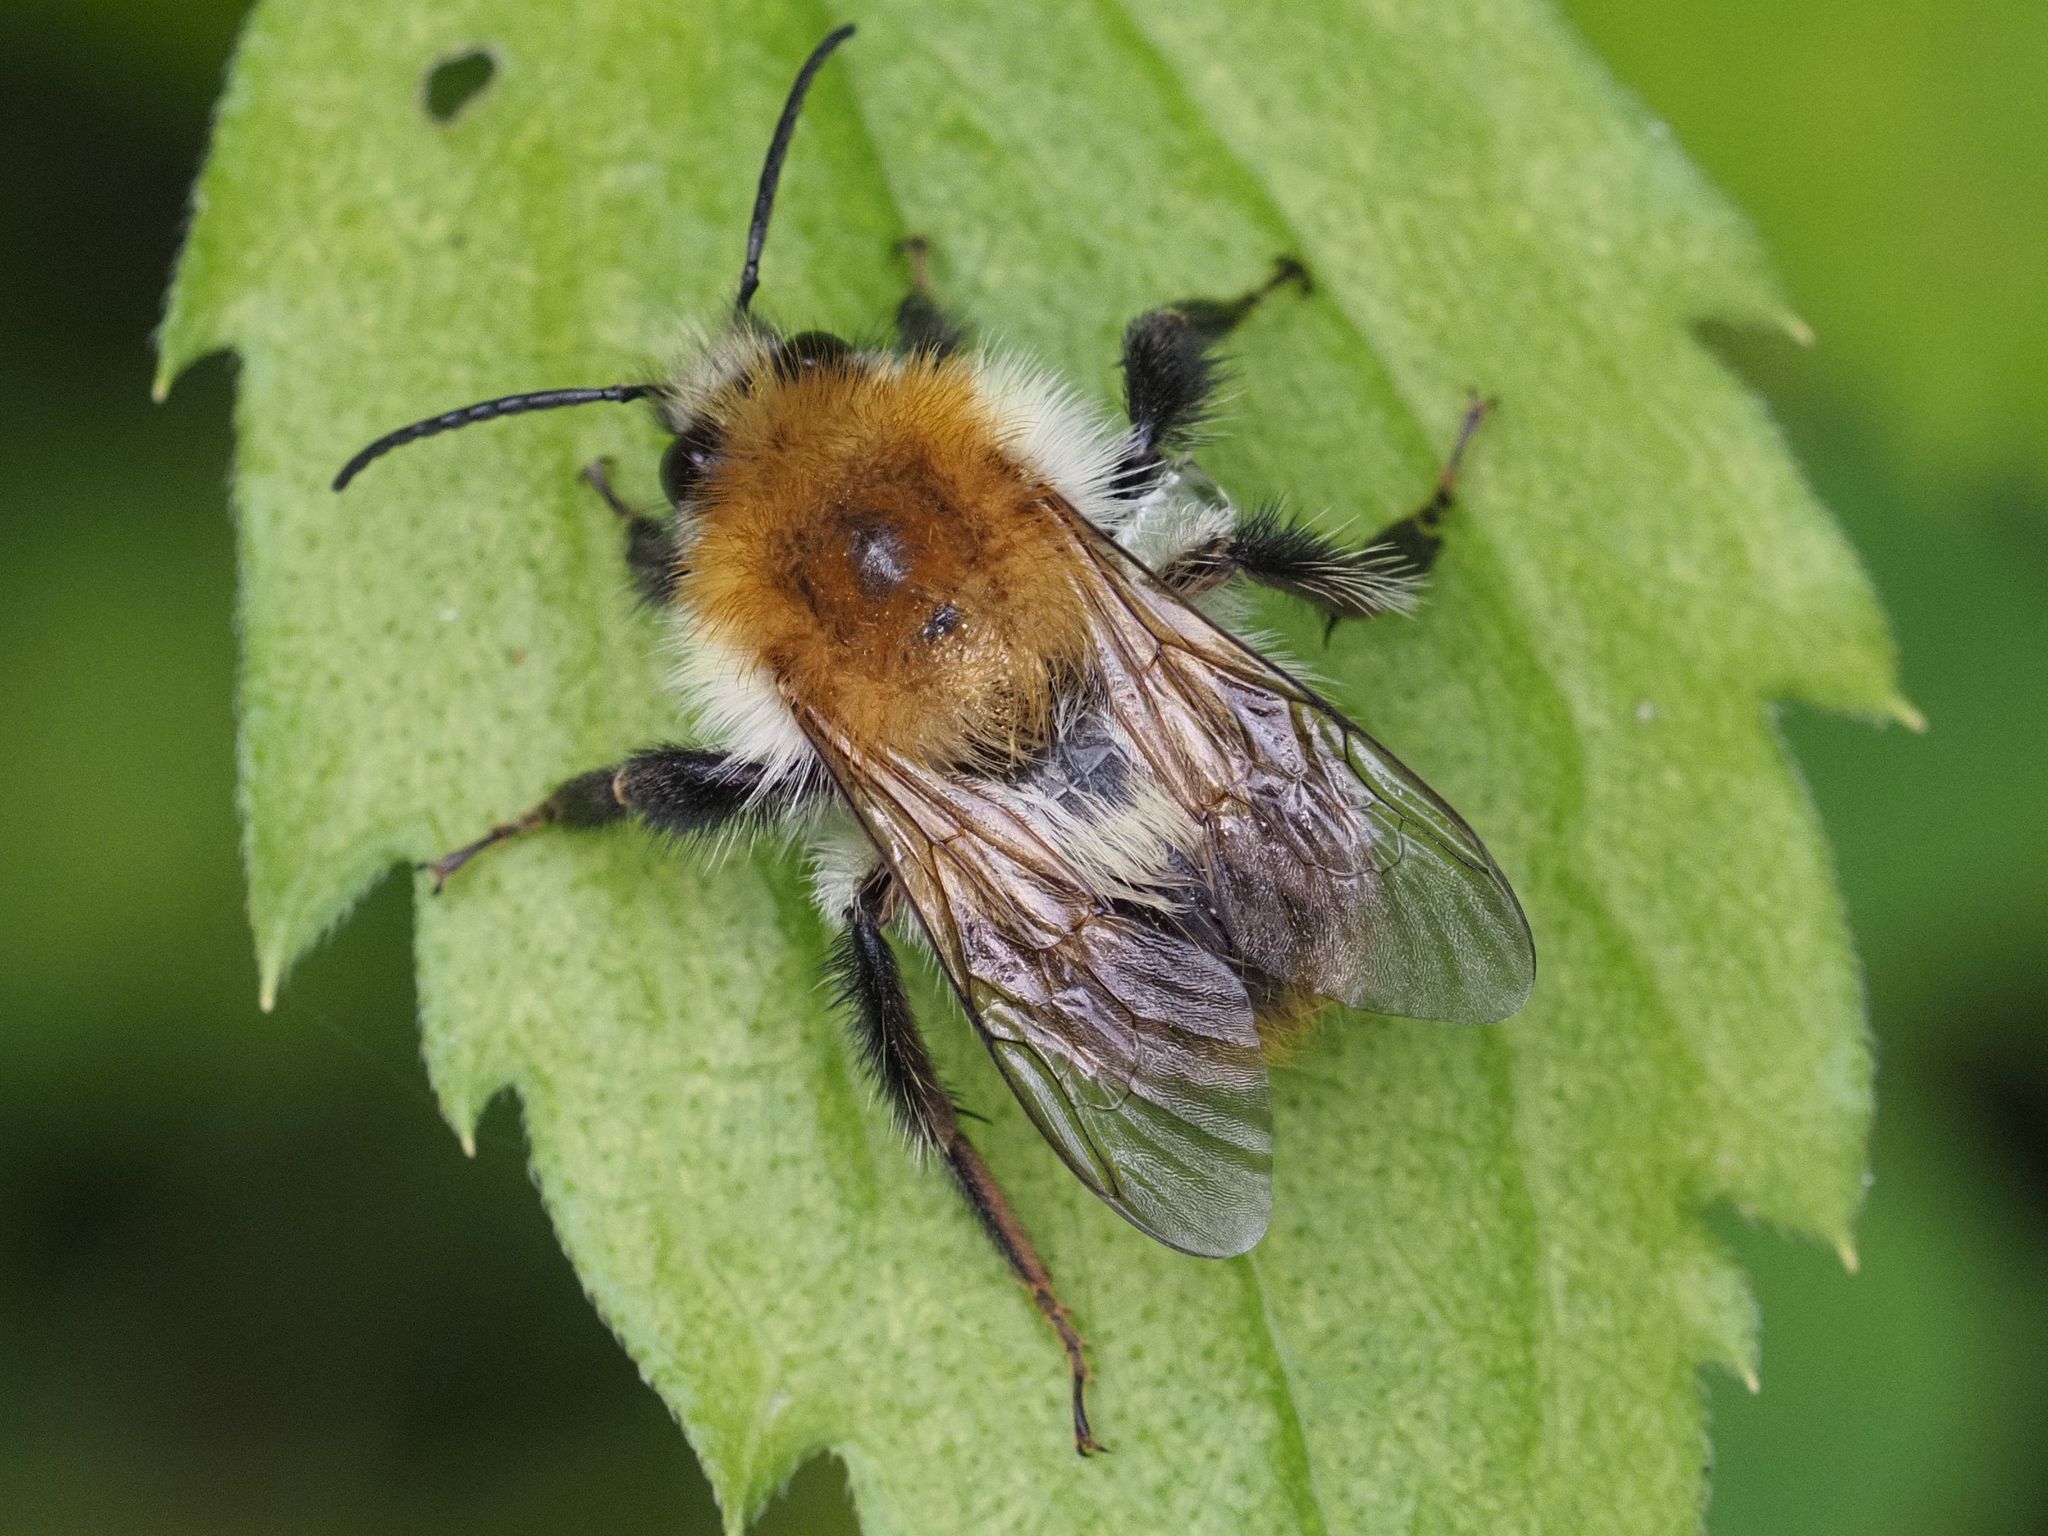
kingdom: Animalia
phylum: Arthropoda
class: Insecta
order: Hymenoptera
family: Apidae
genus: Bombus
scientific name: Bombus pascuorum
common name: Common carder bee
